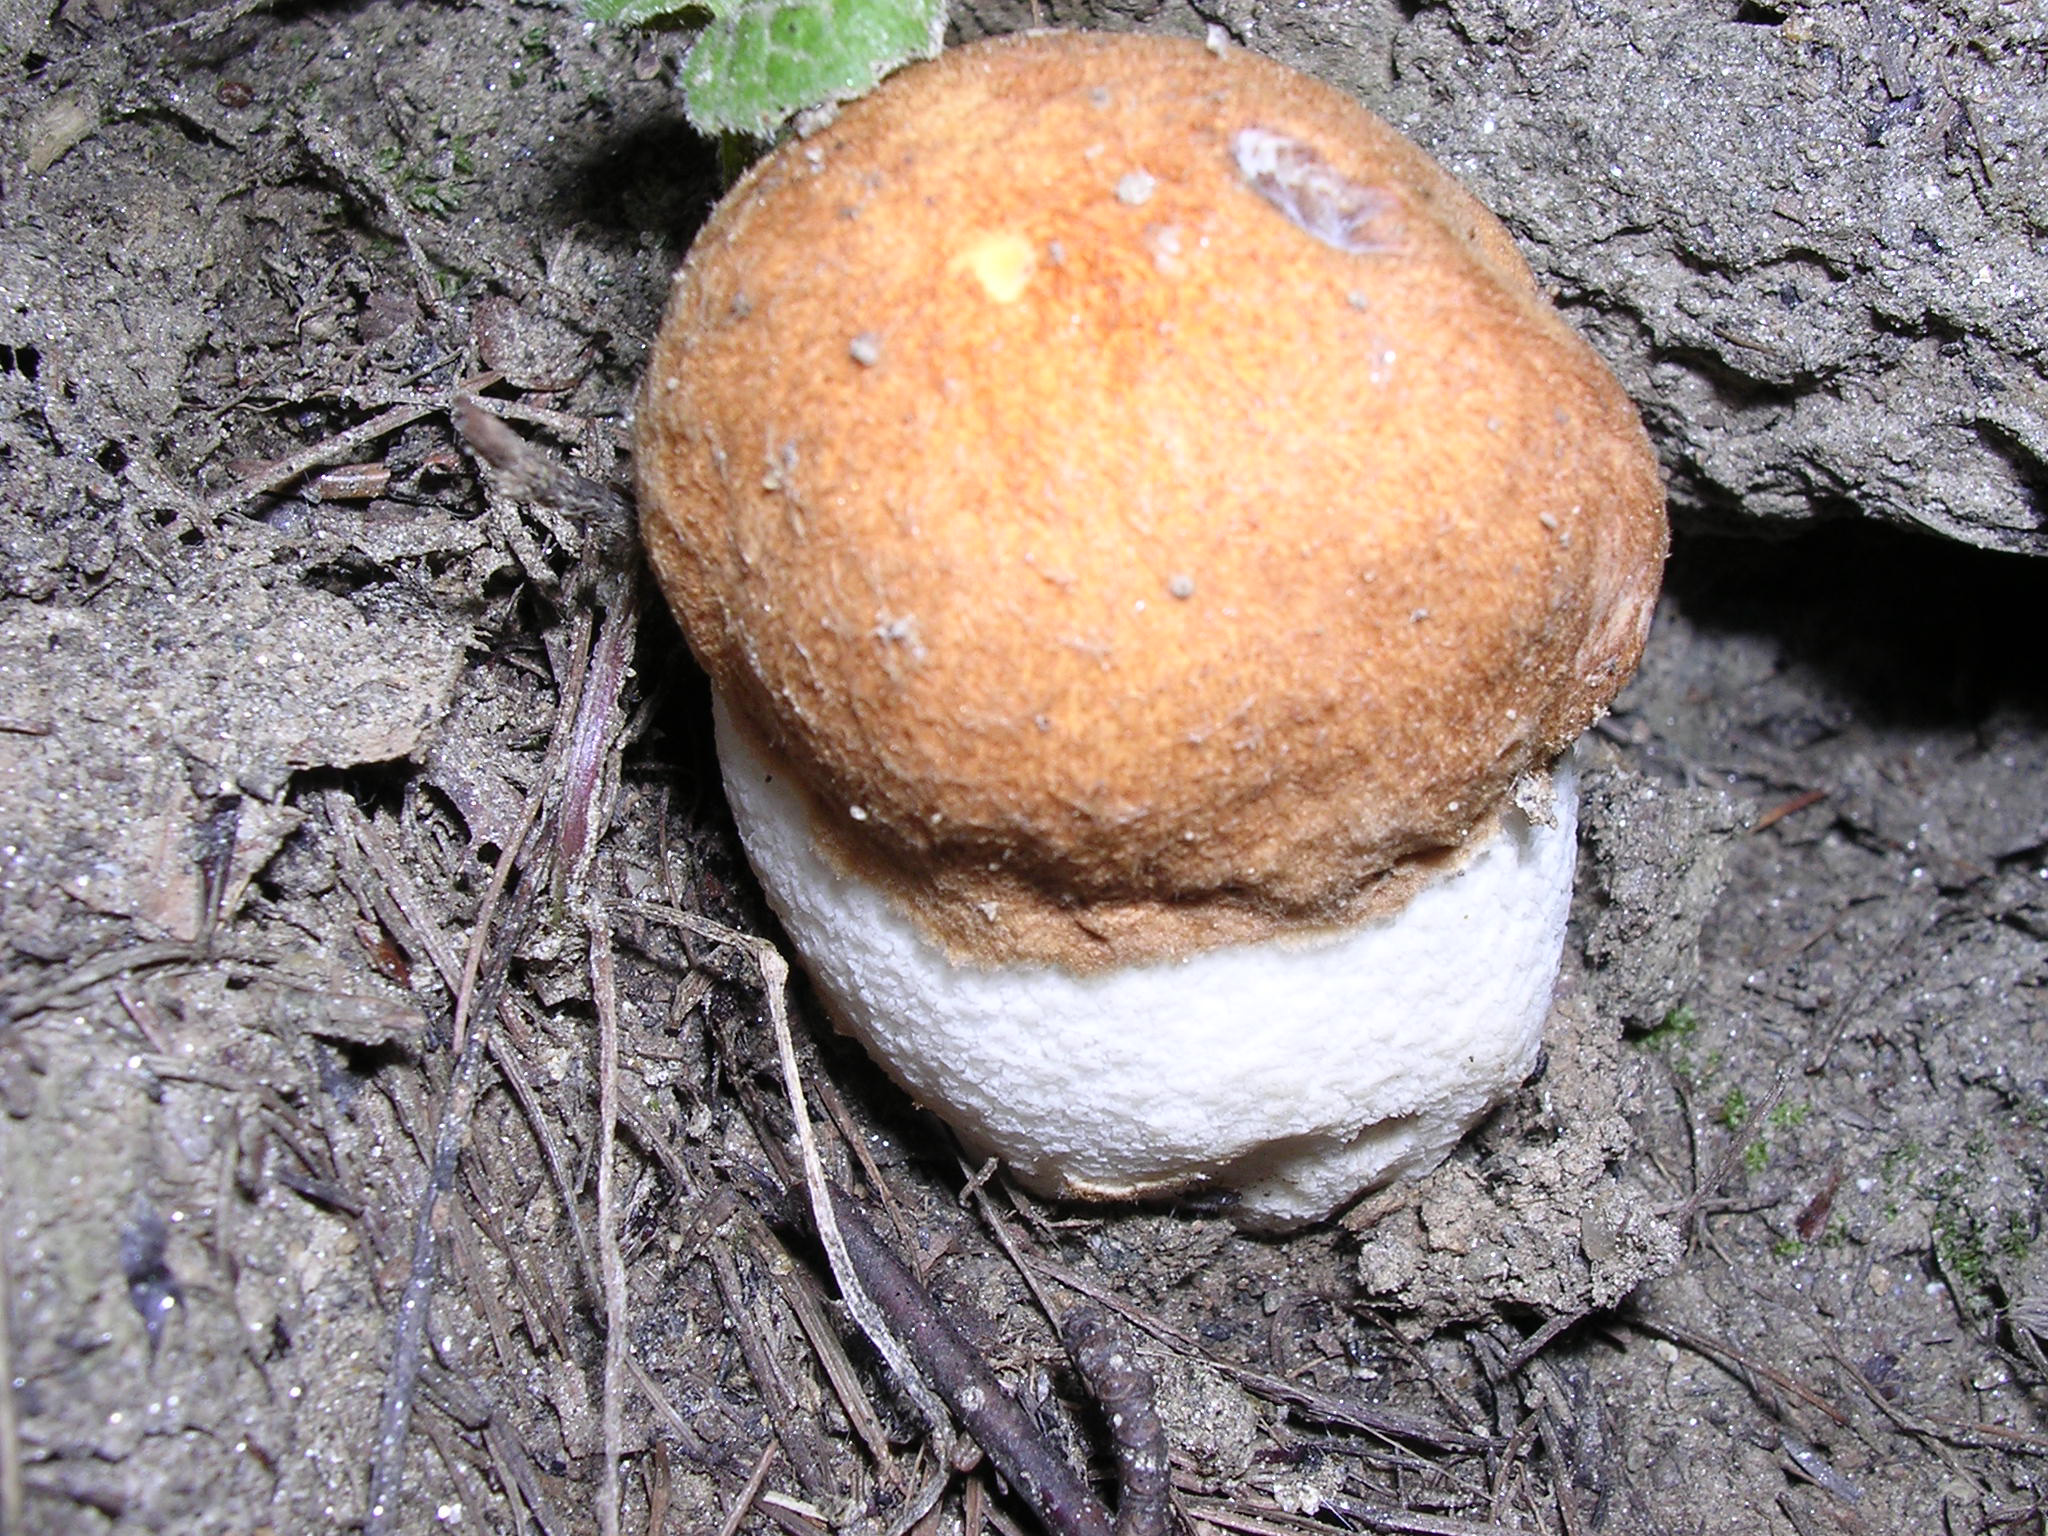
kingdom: Fungi
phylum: Basidiomycota
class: Agaricomycetes
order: Boletales
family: Boletaceae
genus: Leccinum
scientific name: Leccinum albostipitatum
